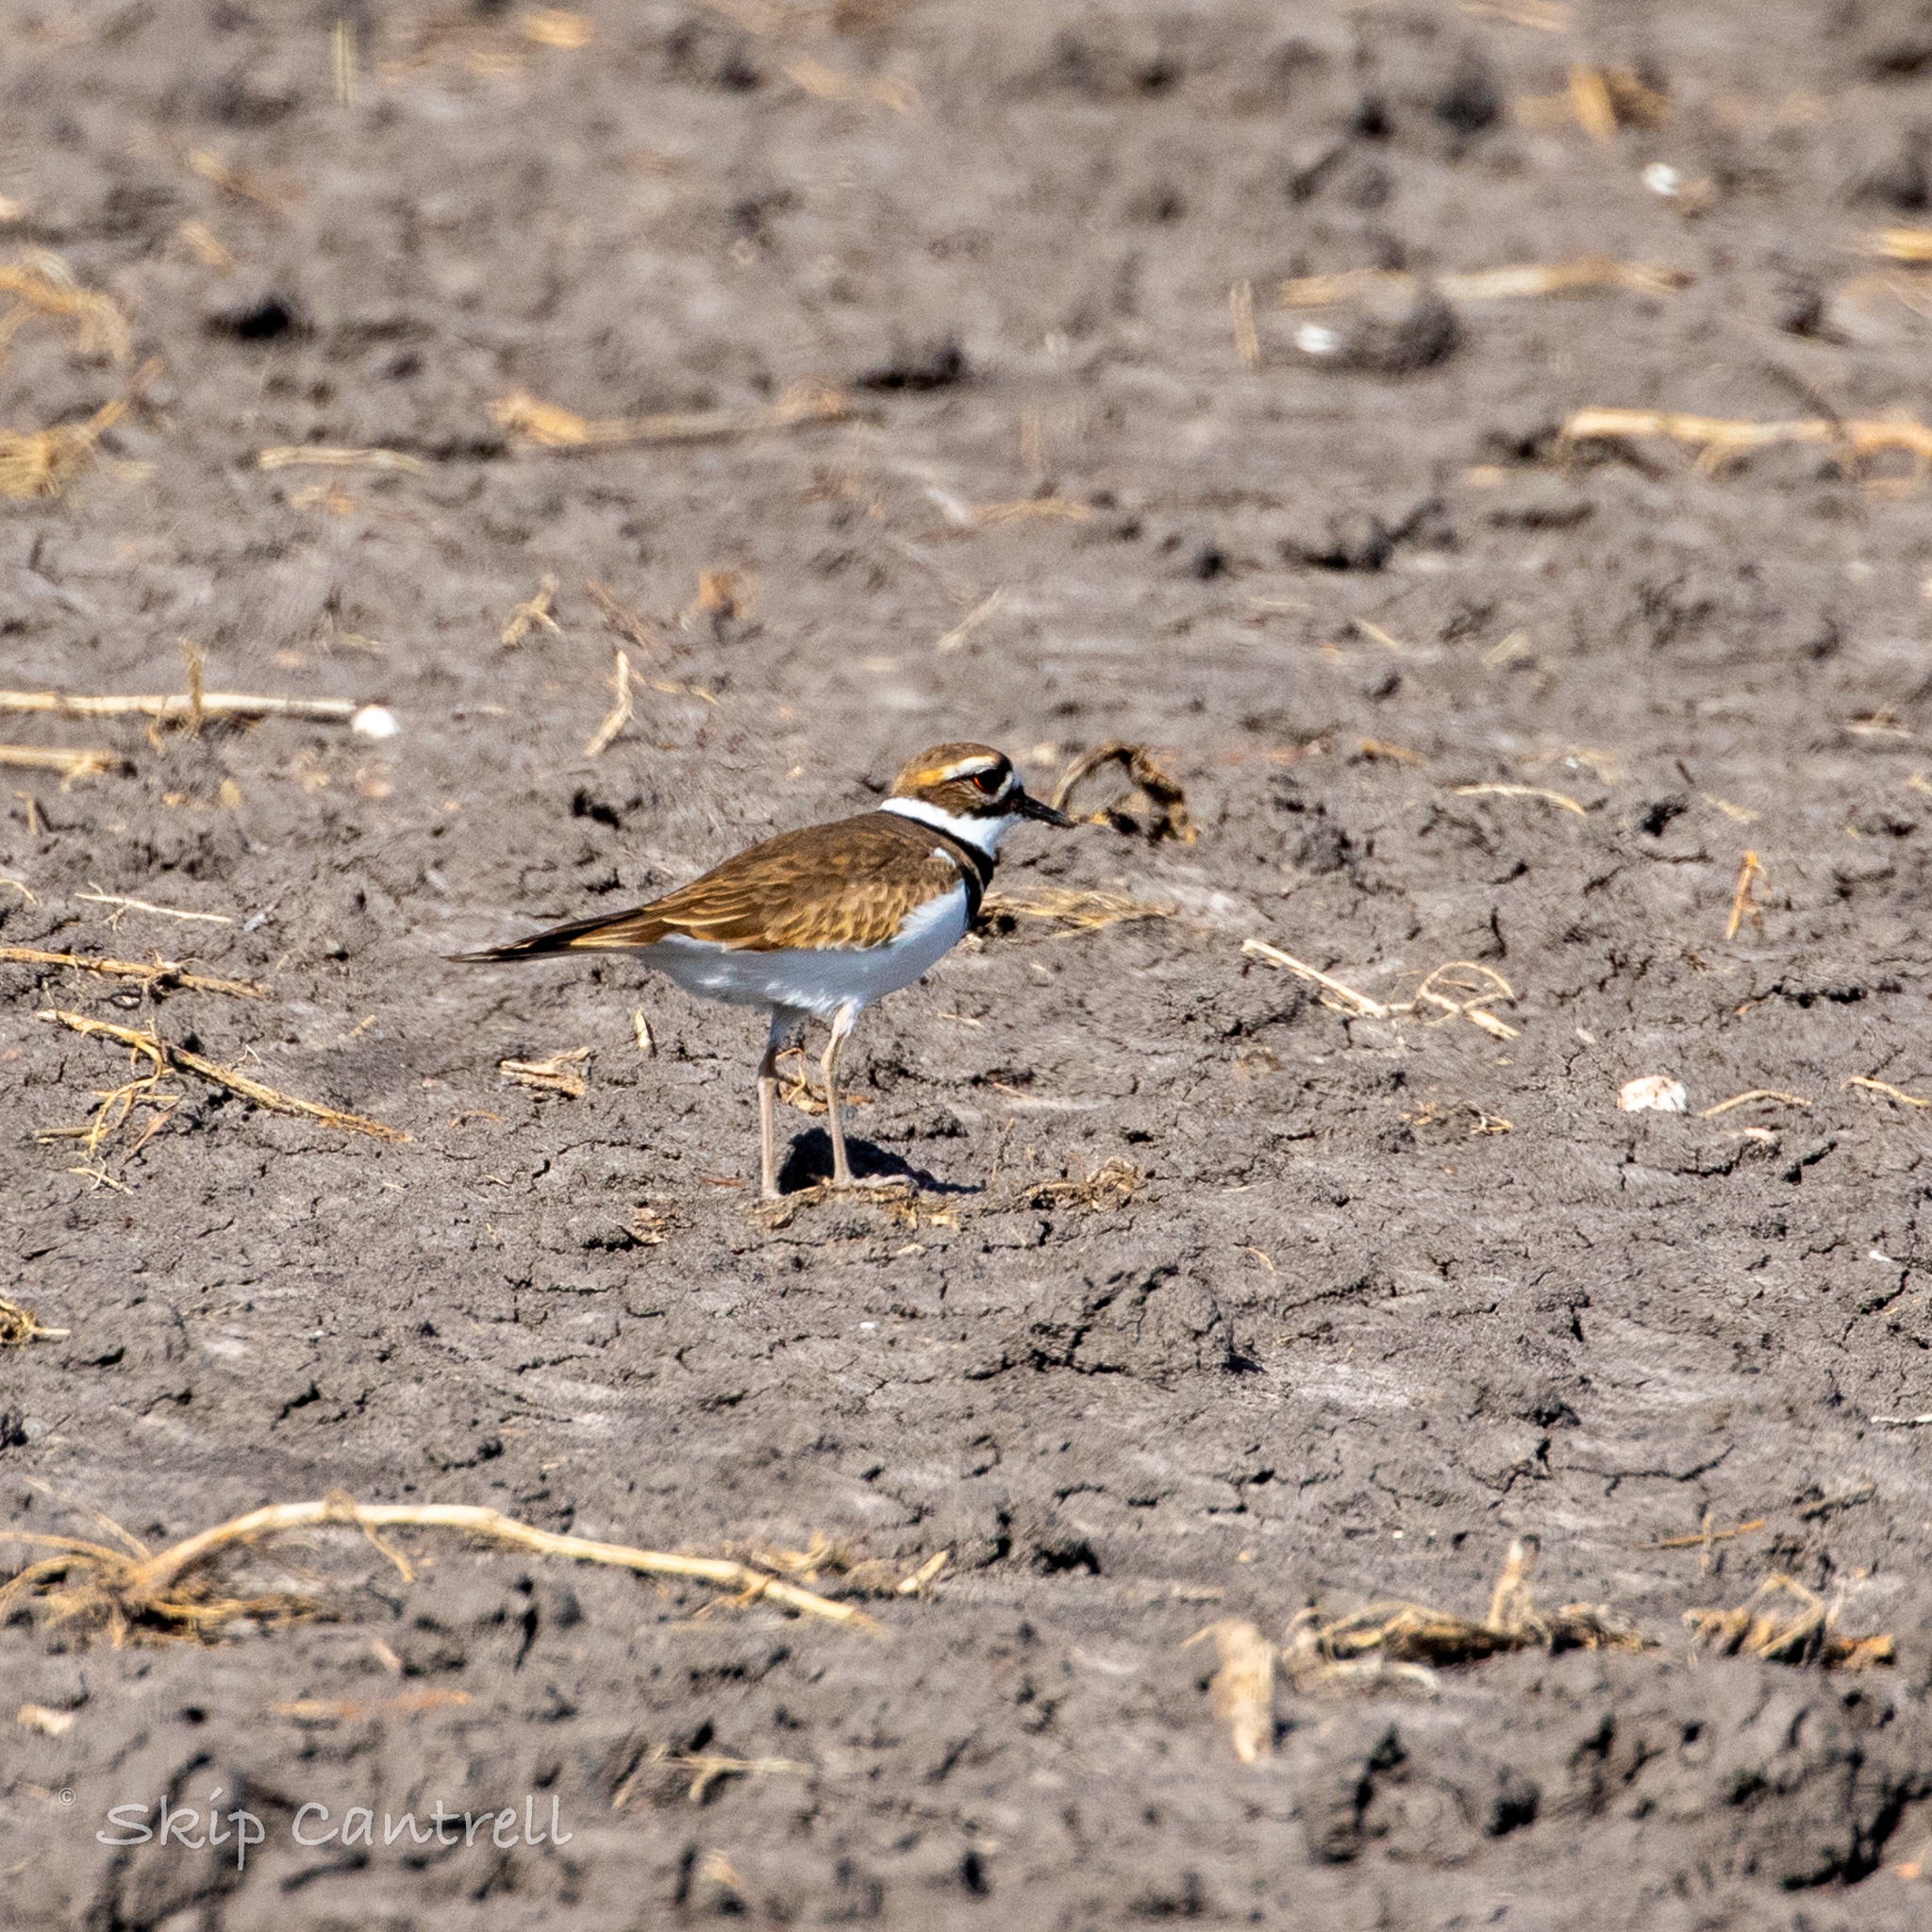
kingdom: Animalia
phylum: Chordata
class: Aves
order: Charadriiformes
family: Charadriidae
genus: Charadrius
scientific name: Charadrius vociferus
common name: Killdeer
